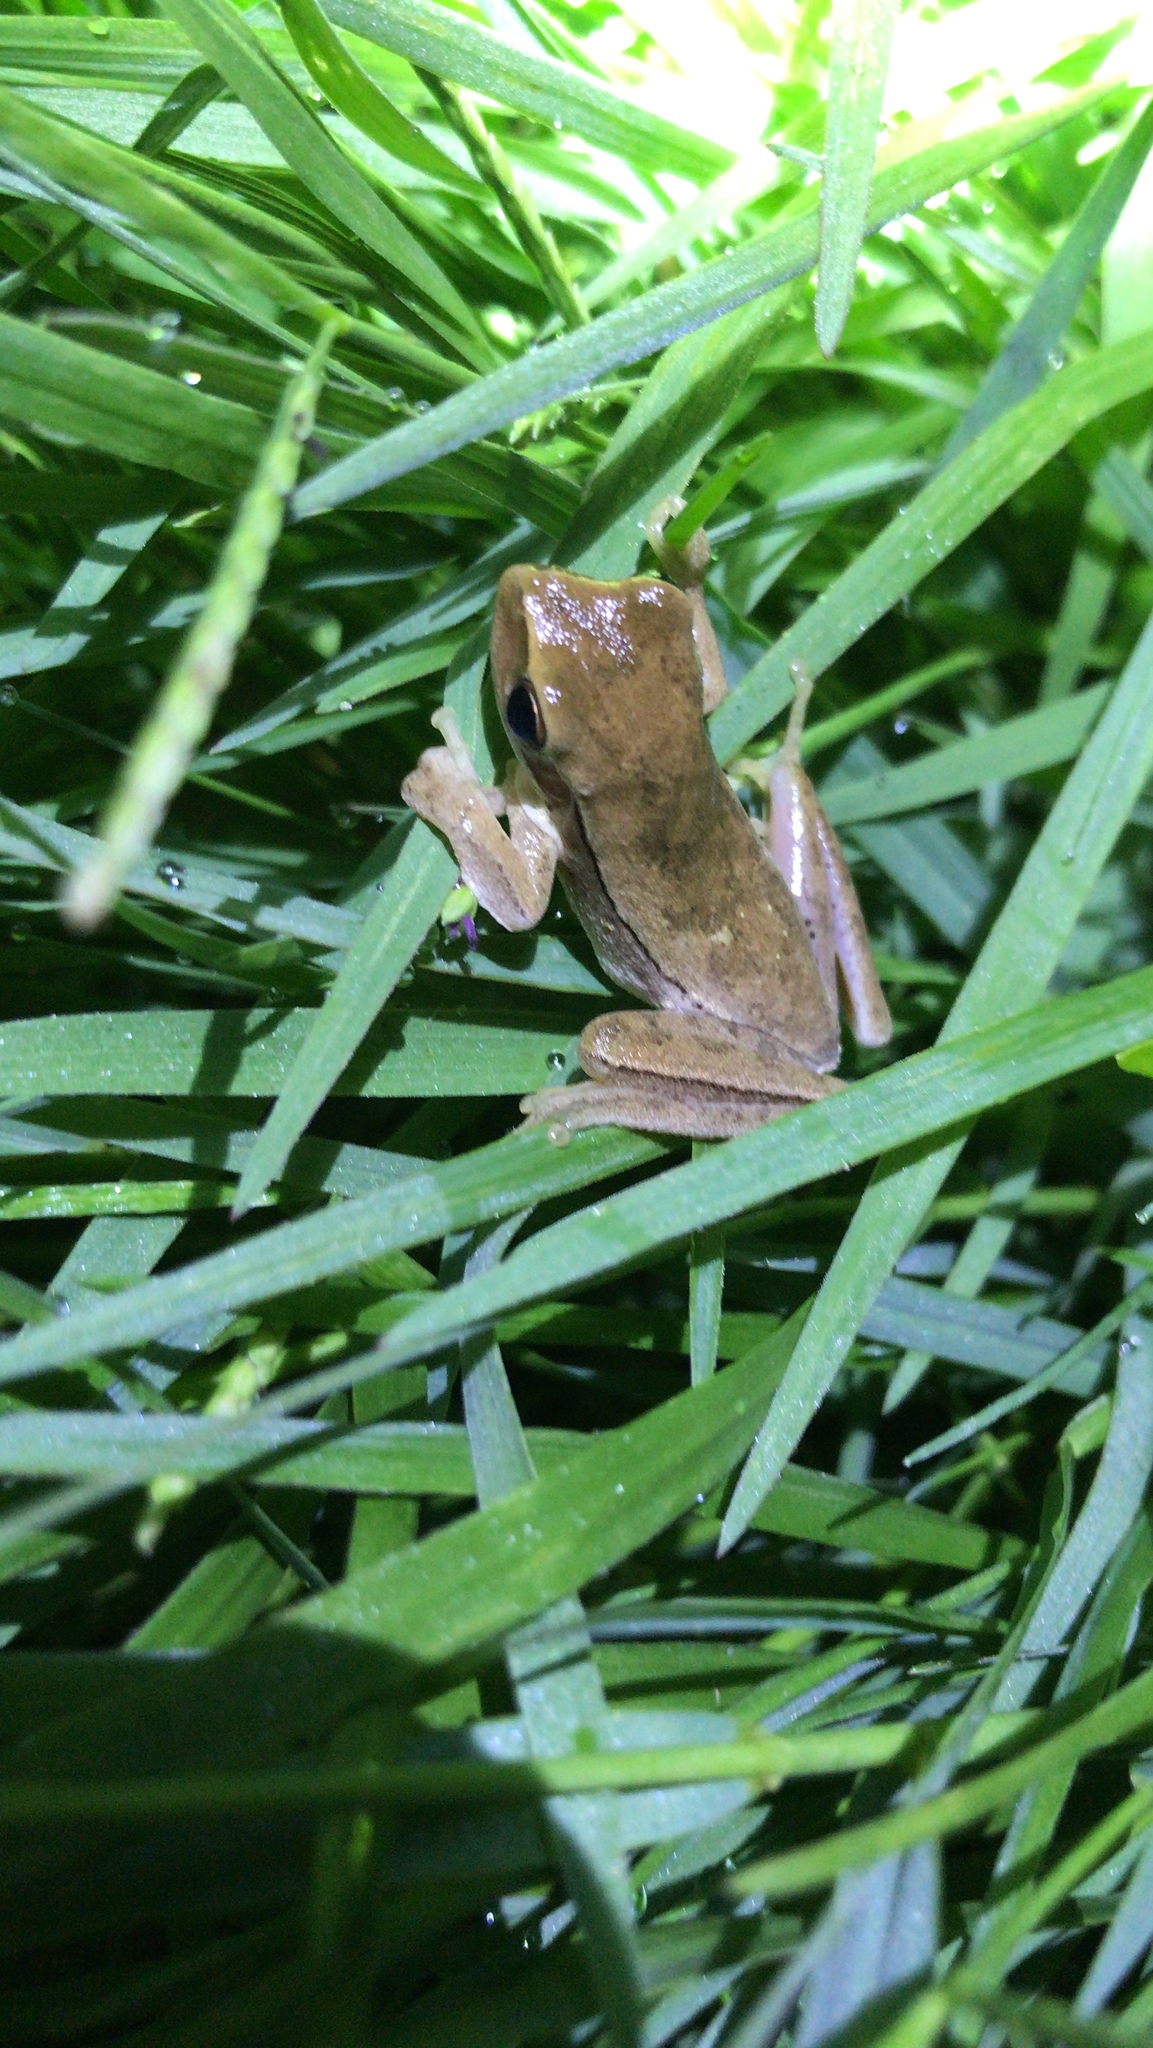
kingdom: Animalia
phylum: Chordata
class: Amphibia
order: Anura
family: Hylidae
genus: Boana
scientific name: Boana pulchella
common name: Montevideo treefrog
